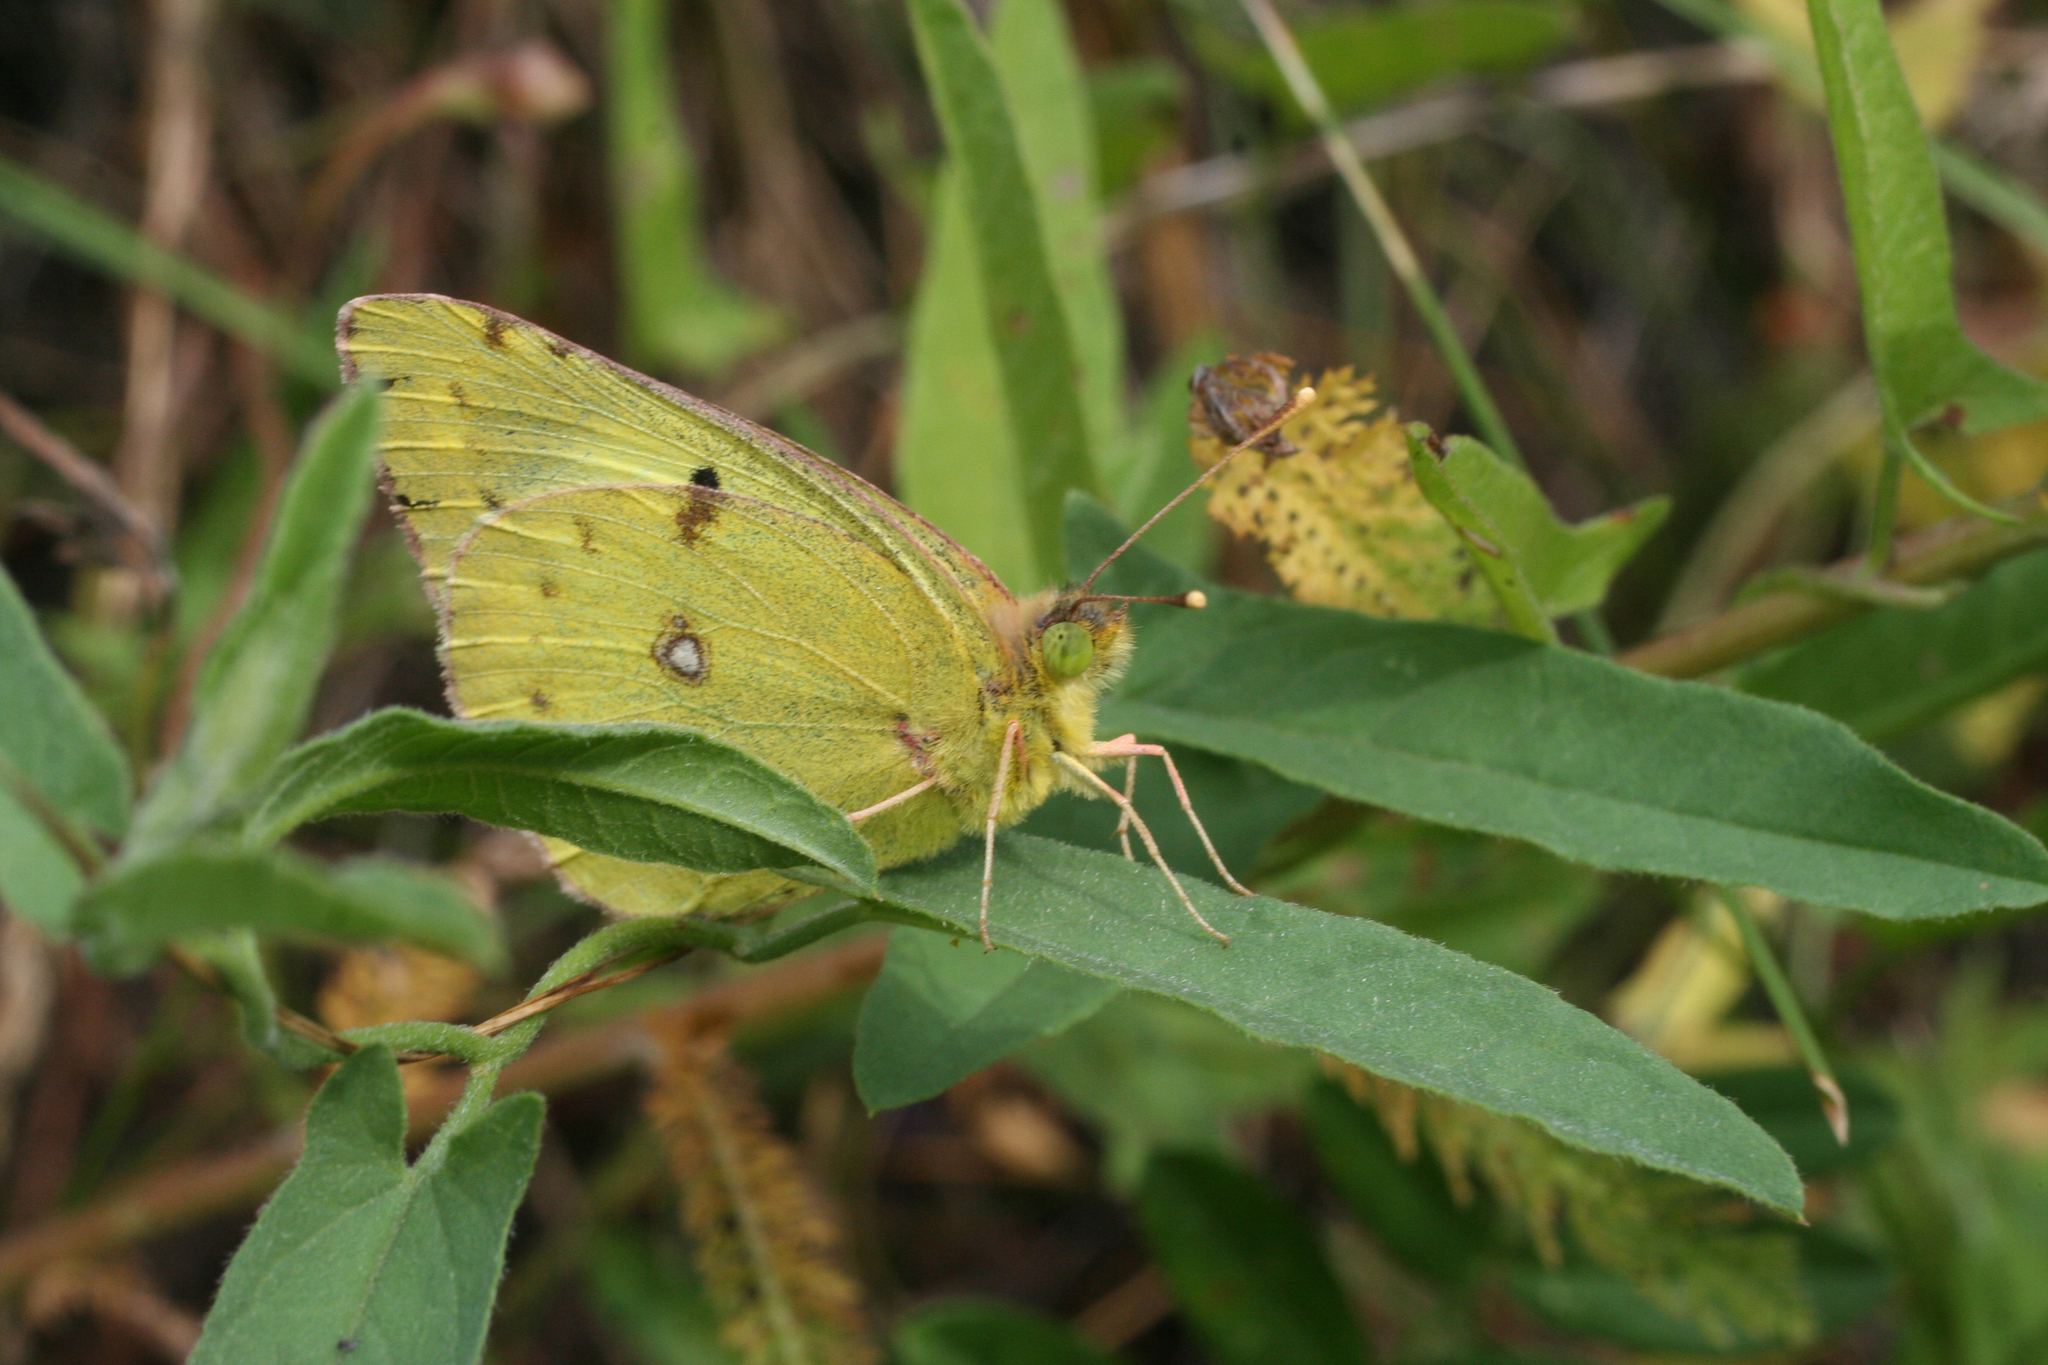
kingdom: Animalia
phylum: Arthropoda
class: Insecta
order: Lepidoptera
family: Pieridae
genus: Colias
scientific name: Colias hyale
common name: Pale clouded yellow
